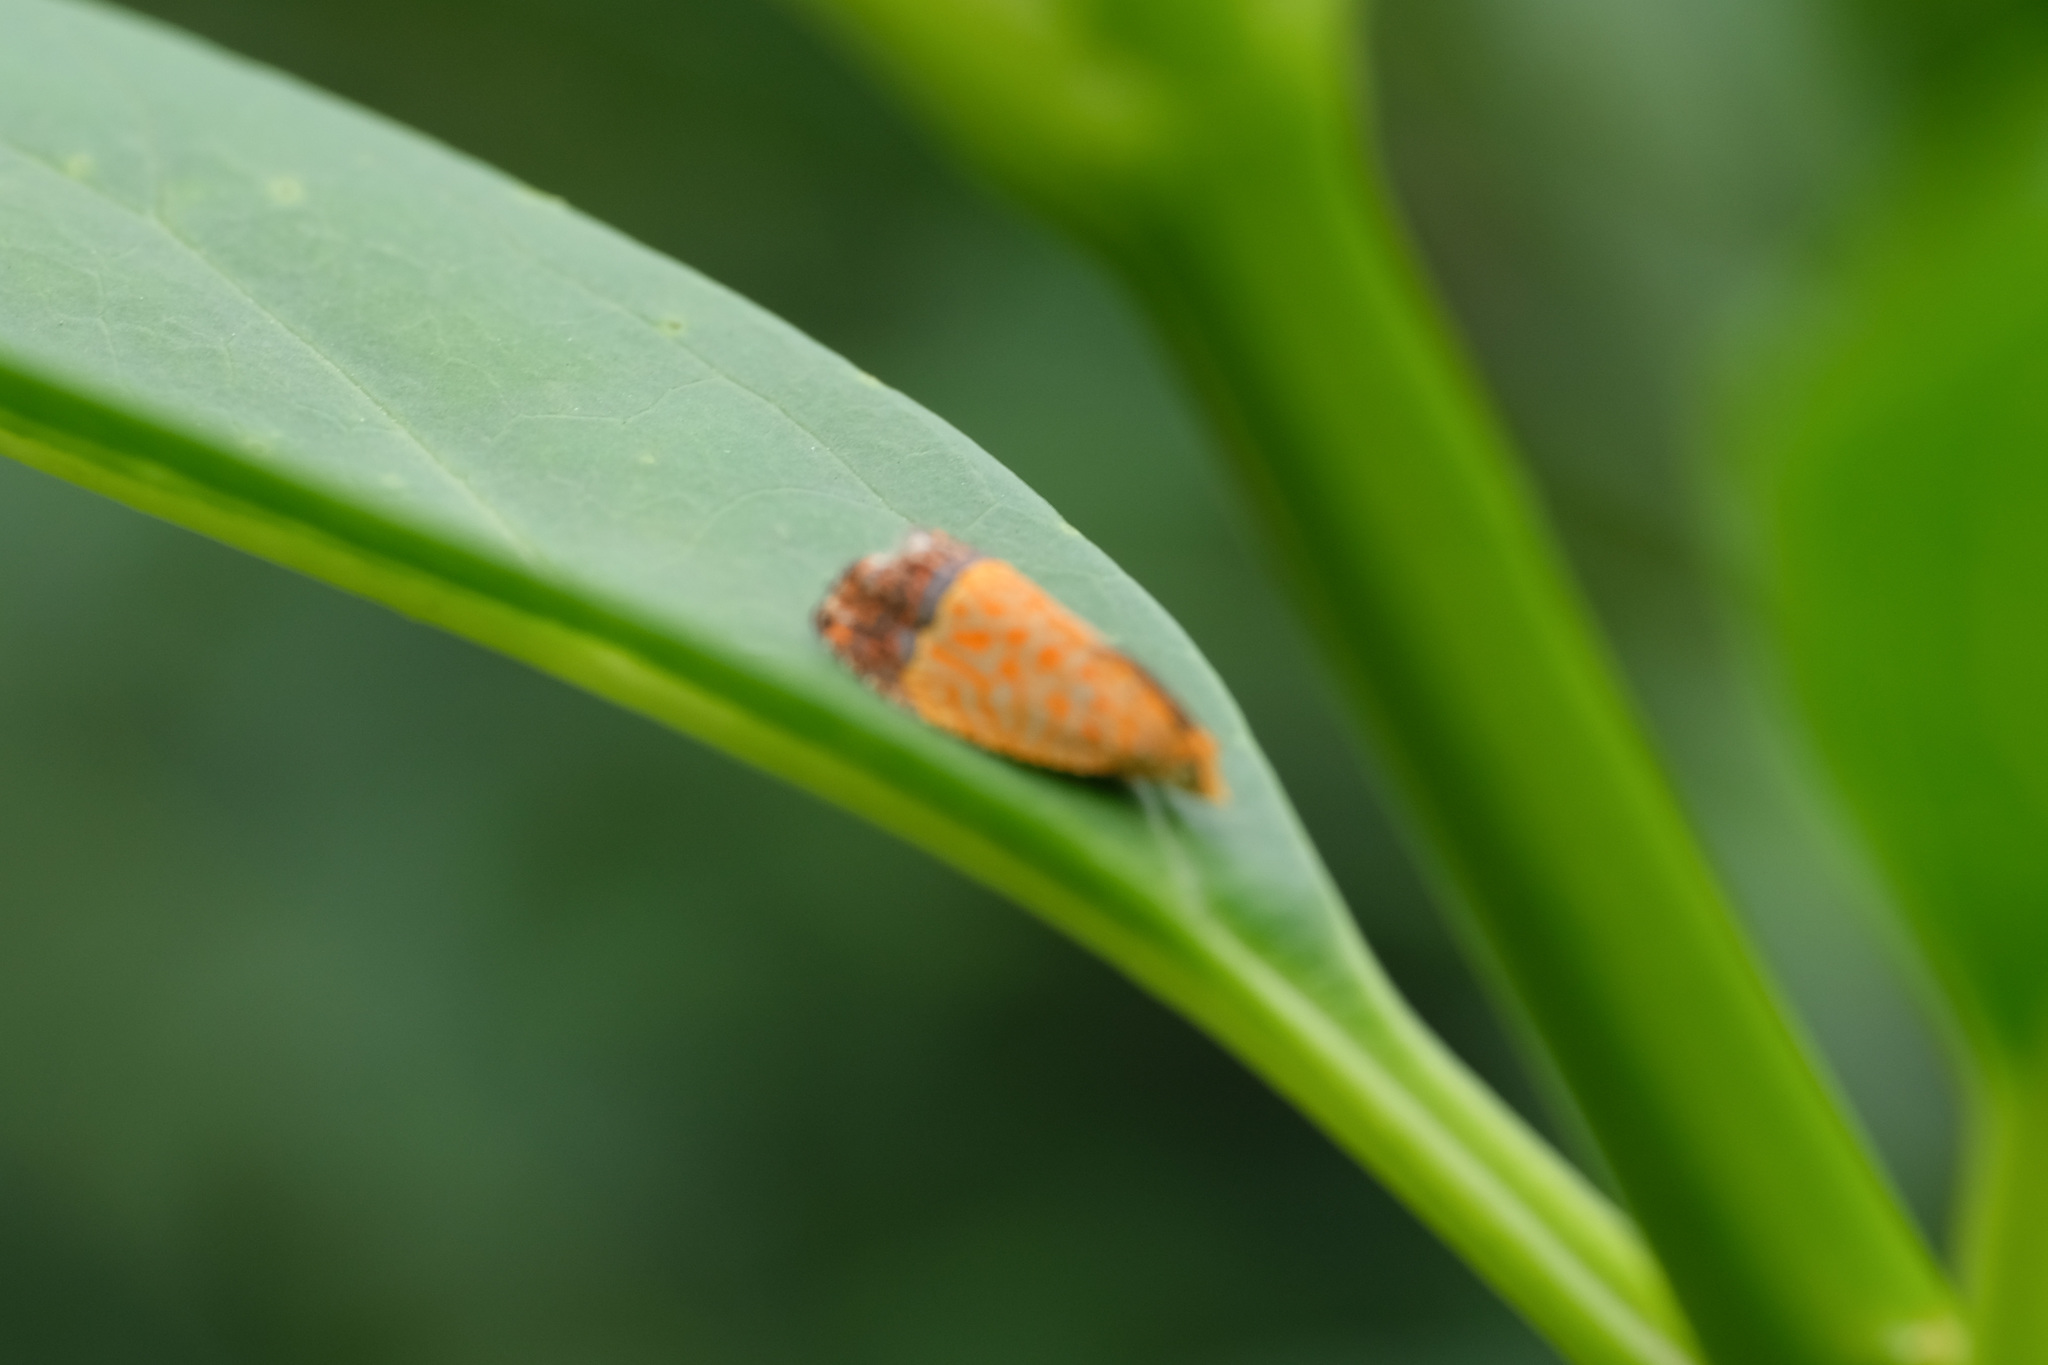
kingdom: Animalia
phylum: Arthropoda
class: Insecta
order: Lepidoptera
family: Tortricidae
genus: Loboschiza
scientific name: Loboschiza koenigiana
